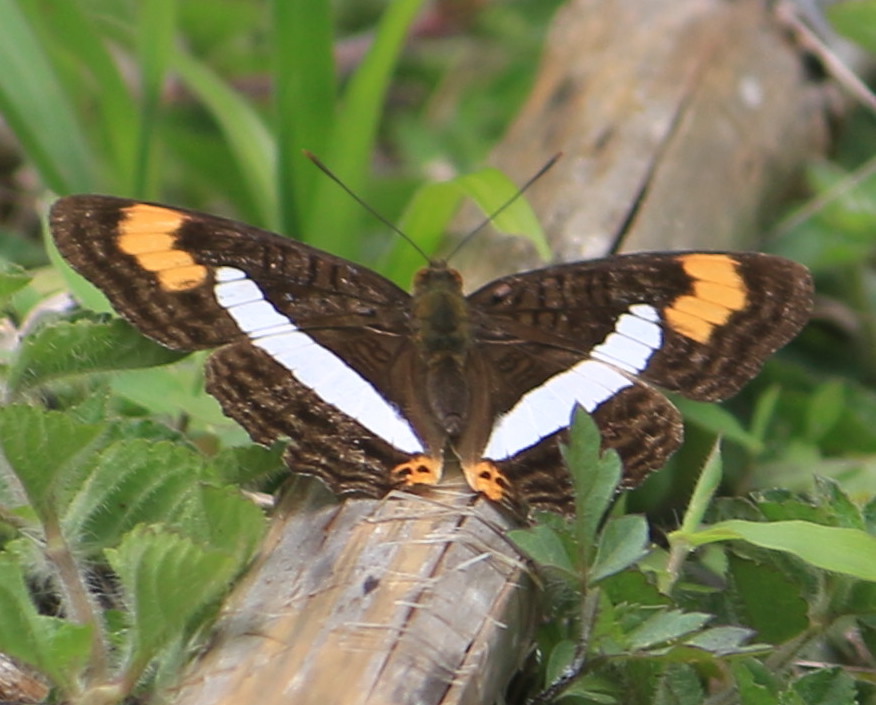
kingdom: Animalia
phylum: Arthropoda
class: Insecta
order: Lepidoptera
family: Nymphalidae
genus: Limenitis
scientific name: Limenitis pithys
